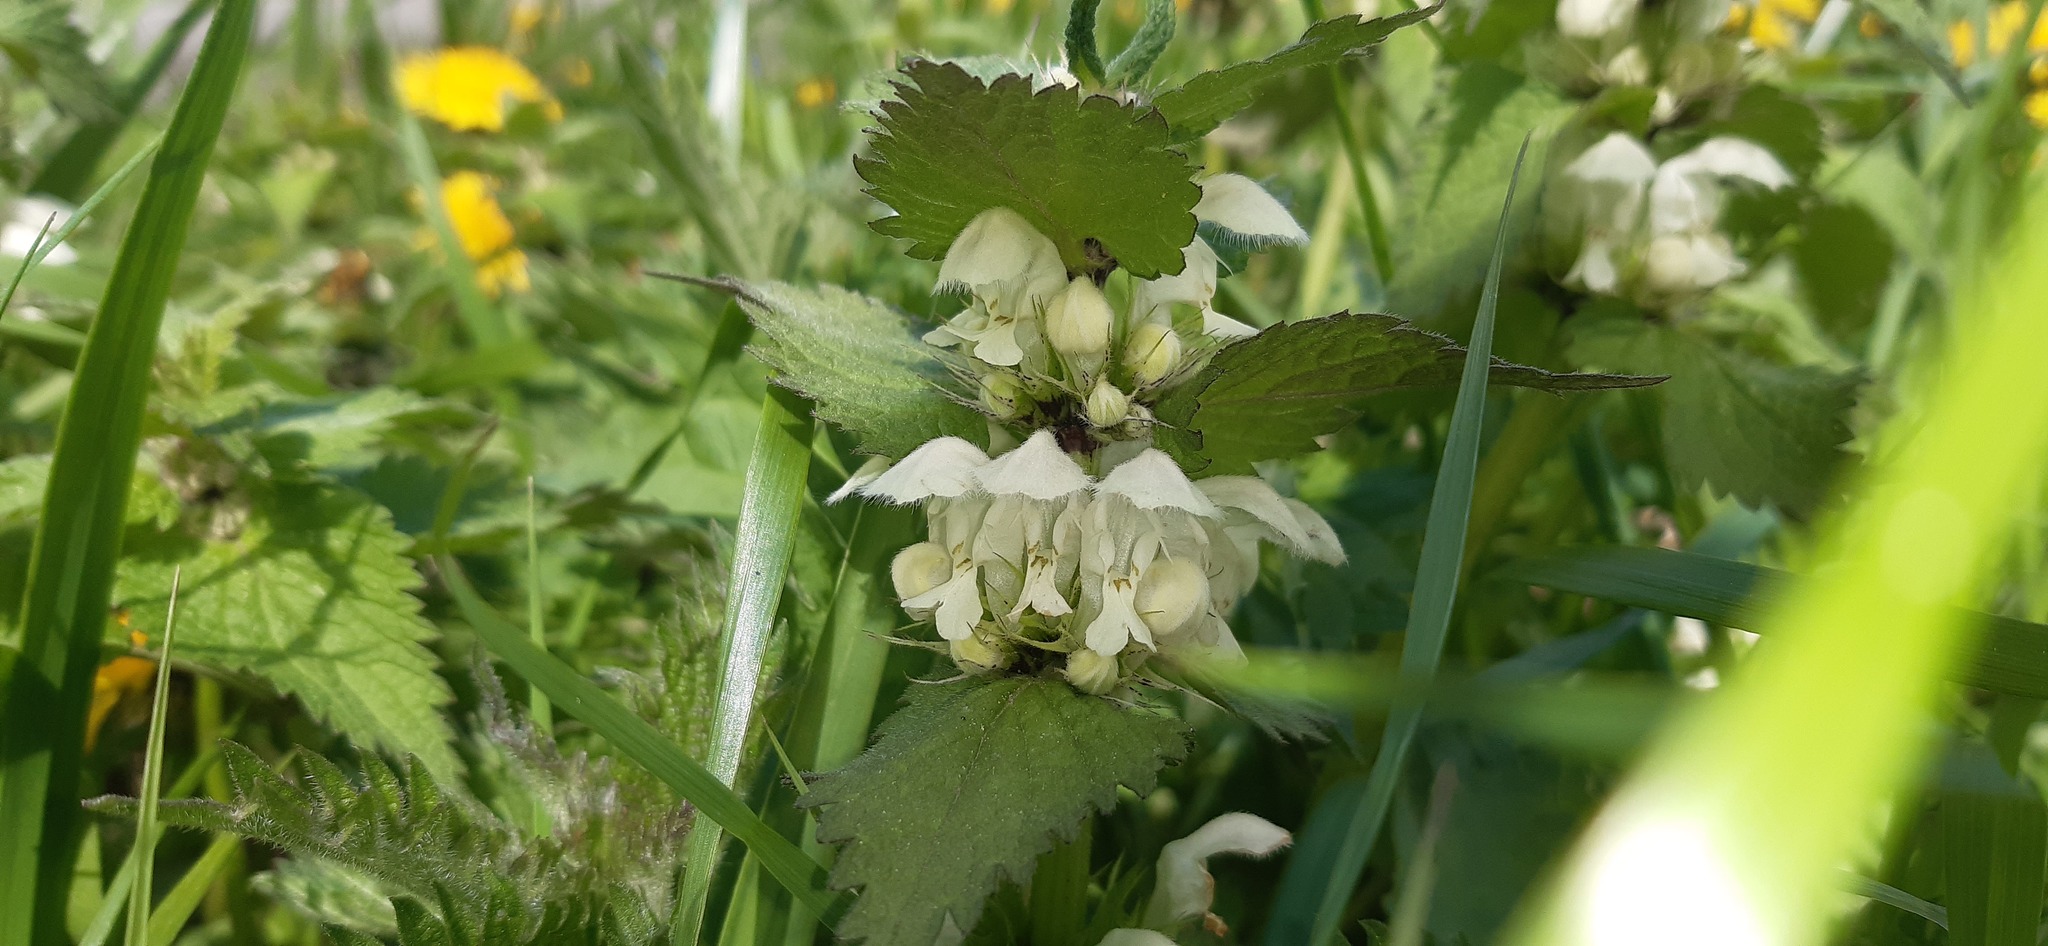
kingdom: Plantae
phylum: Tracheophyta
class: Magnoliopsida
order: Lamiales
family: Lamiaceae
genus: Lamium
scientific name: Lamium album
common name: White dead-nettle
